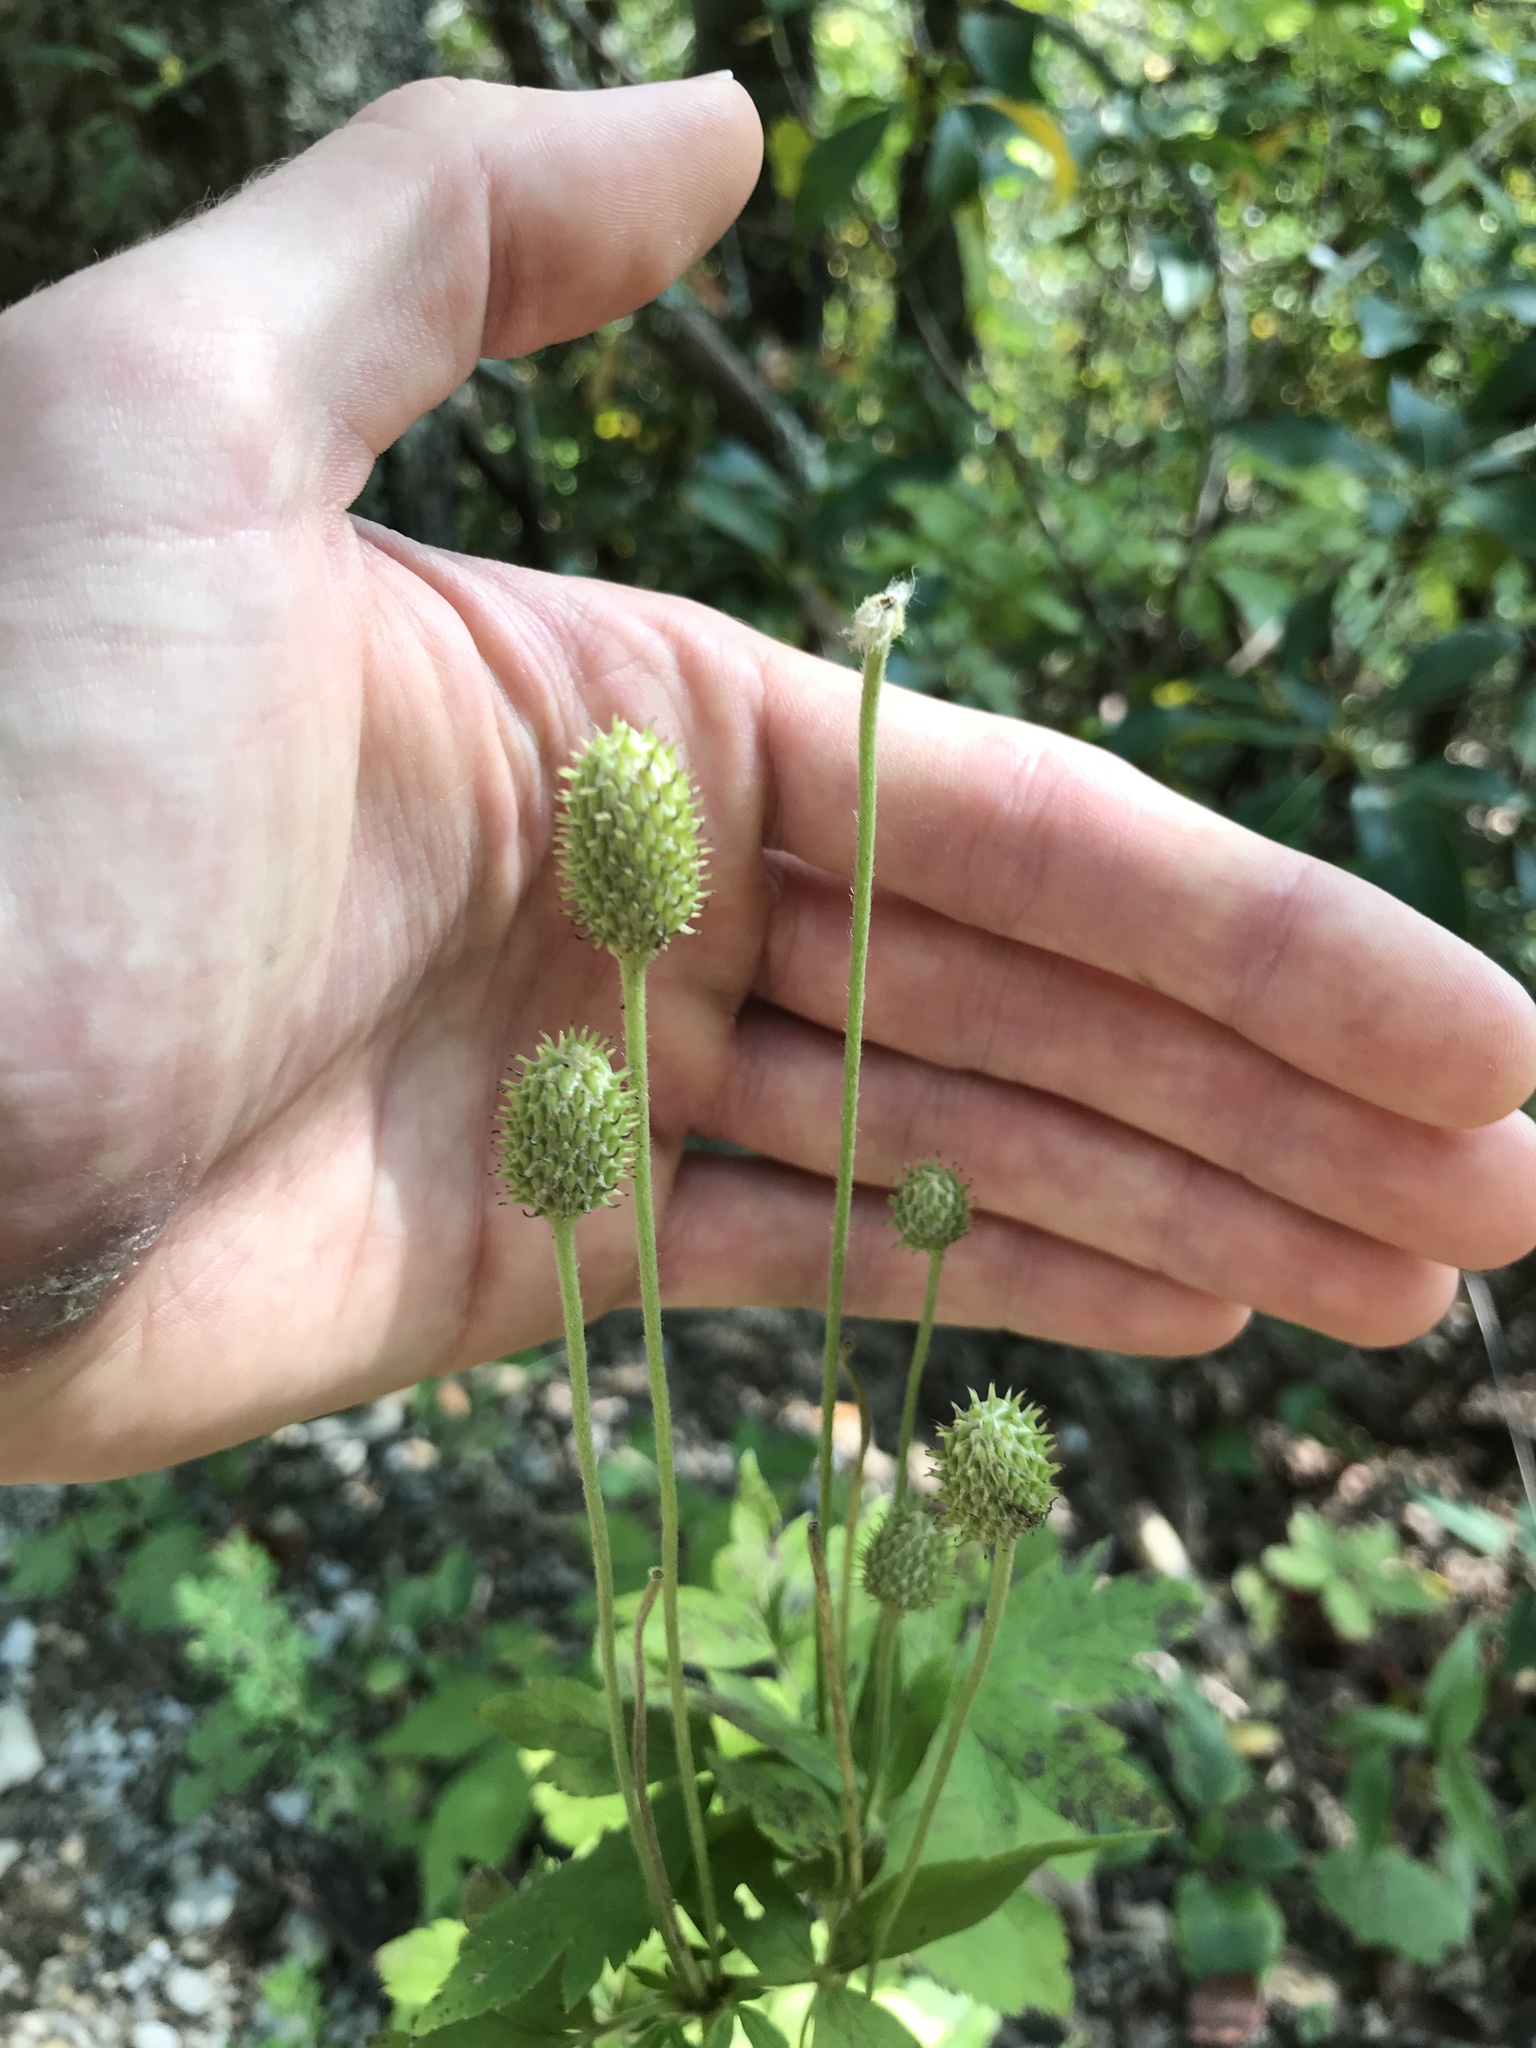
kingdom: Plantae
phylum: Tracheophyta
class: Magnoliopsida
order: Ranunculales
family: Ranunculaceae
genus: Anemone
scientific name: Anemone virginiana
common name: Tall anemone
